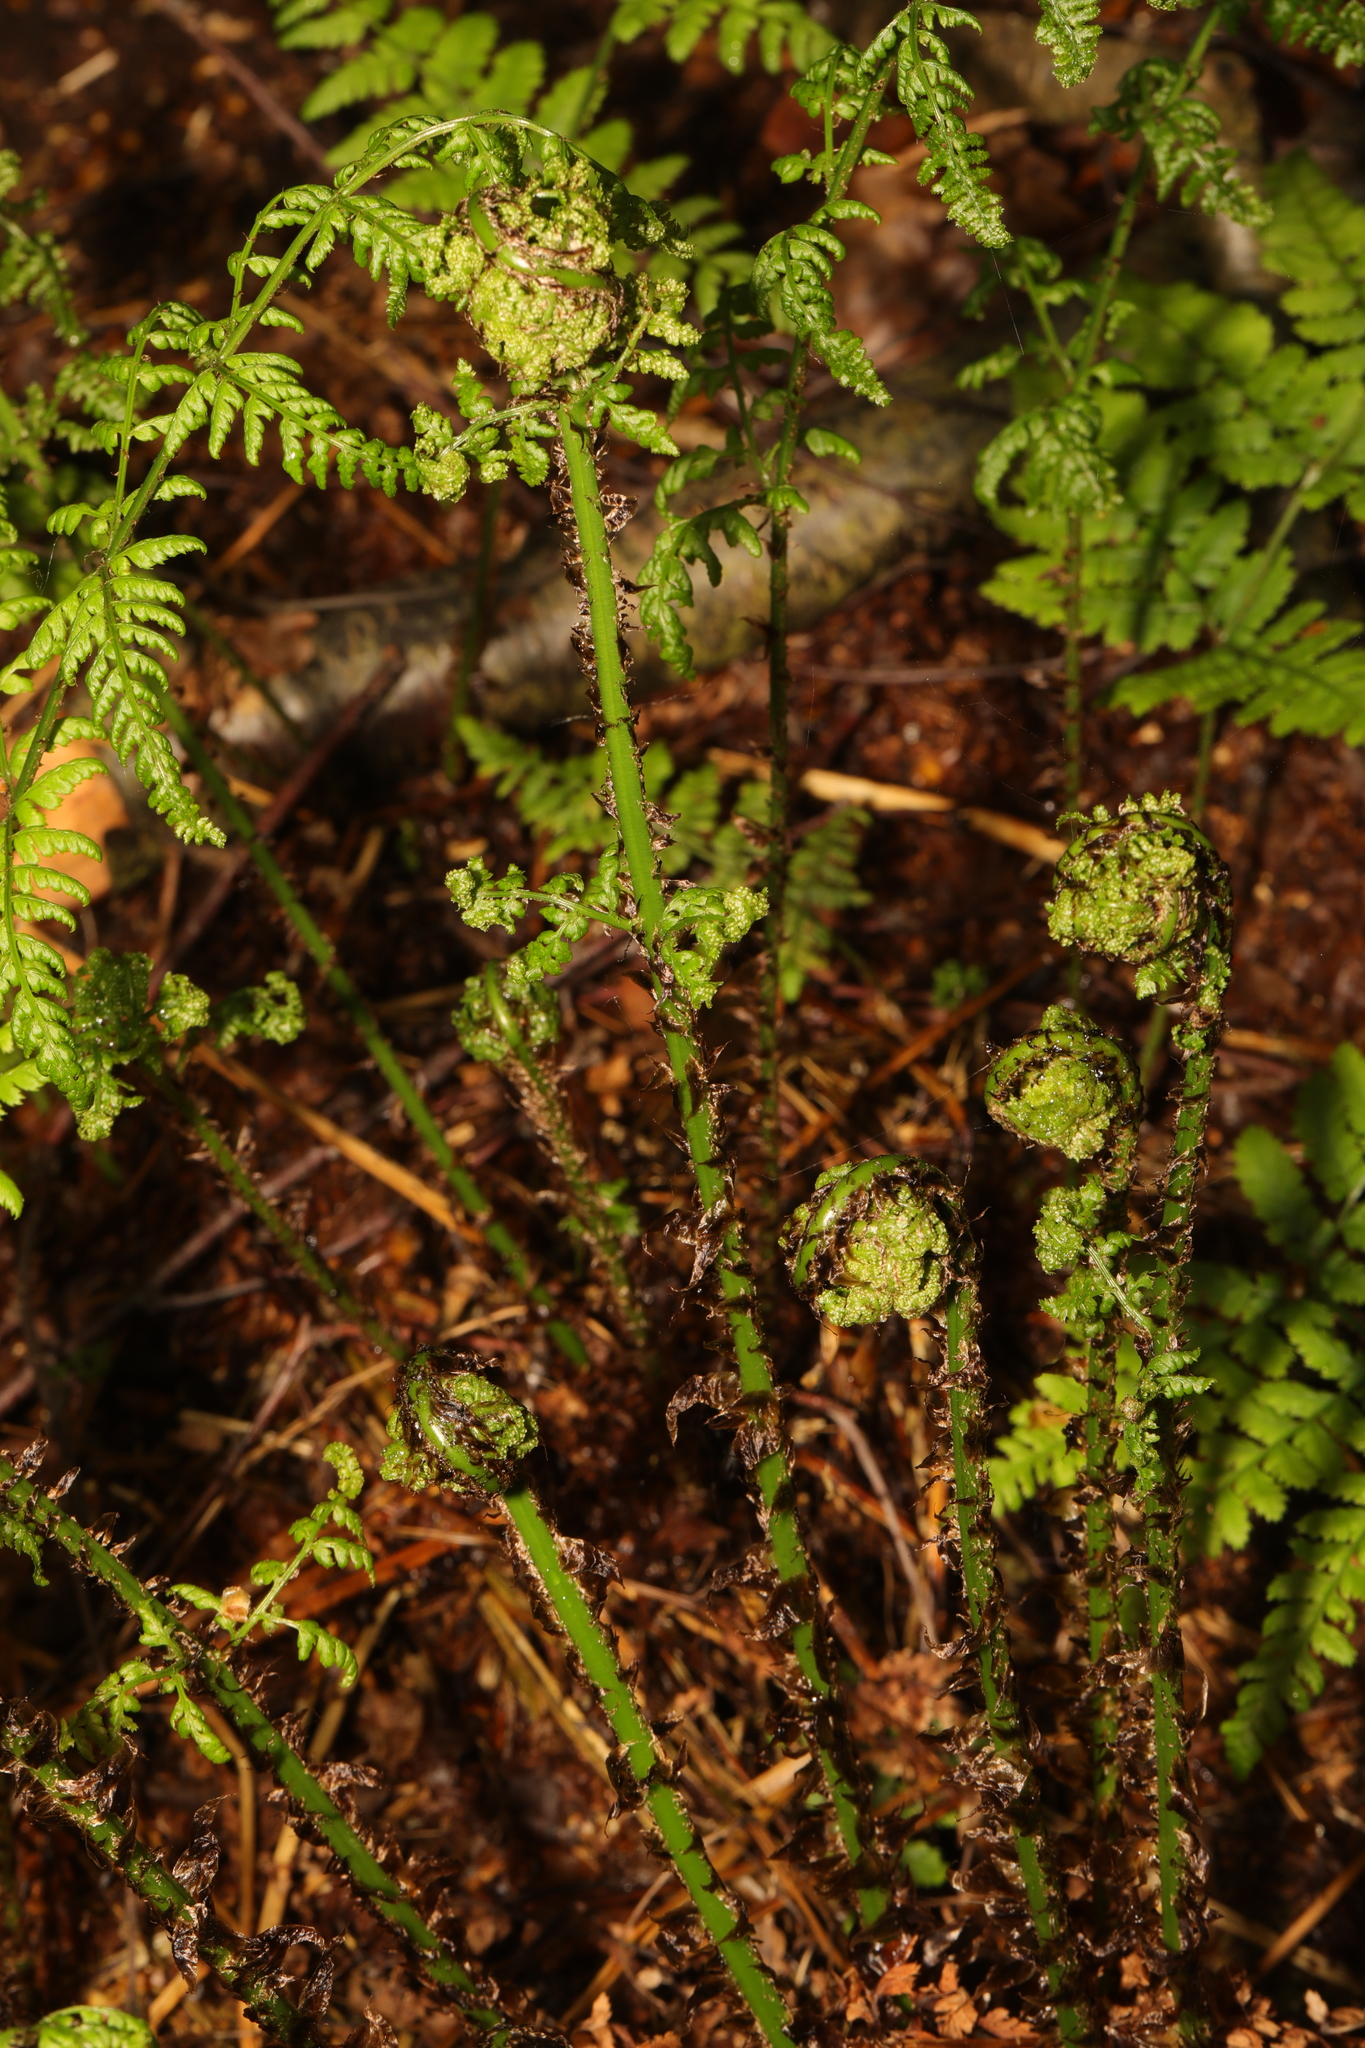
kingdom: Plantae
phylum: Tracheophyta
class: Polypodiopsida
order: Polypodiales
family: Dryopteridaceae
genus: Dryopteris
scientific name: Dryopteris dilatata
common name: Broad buckler-fern
